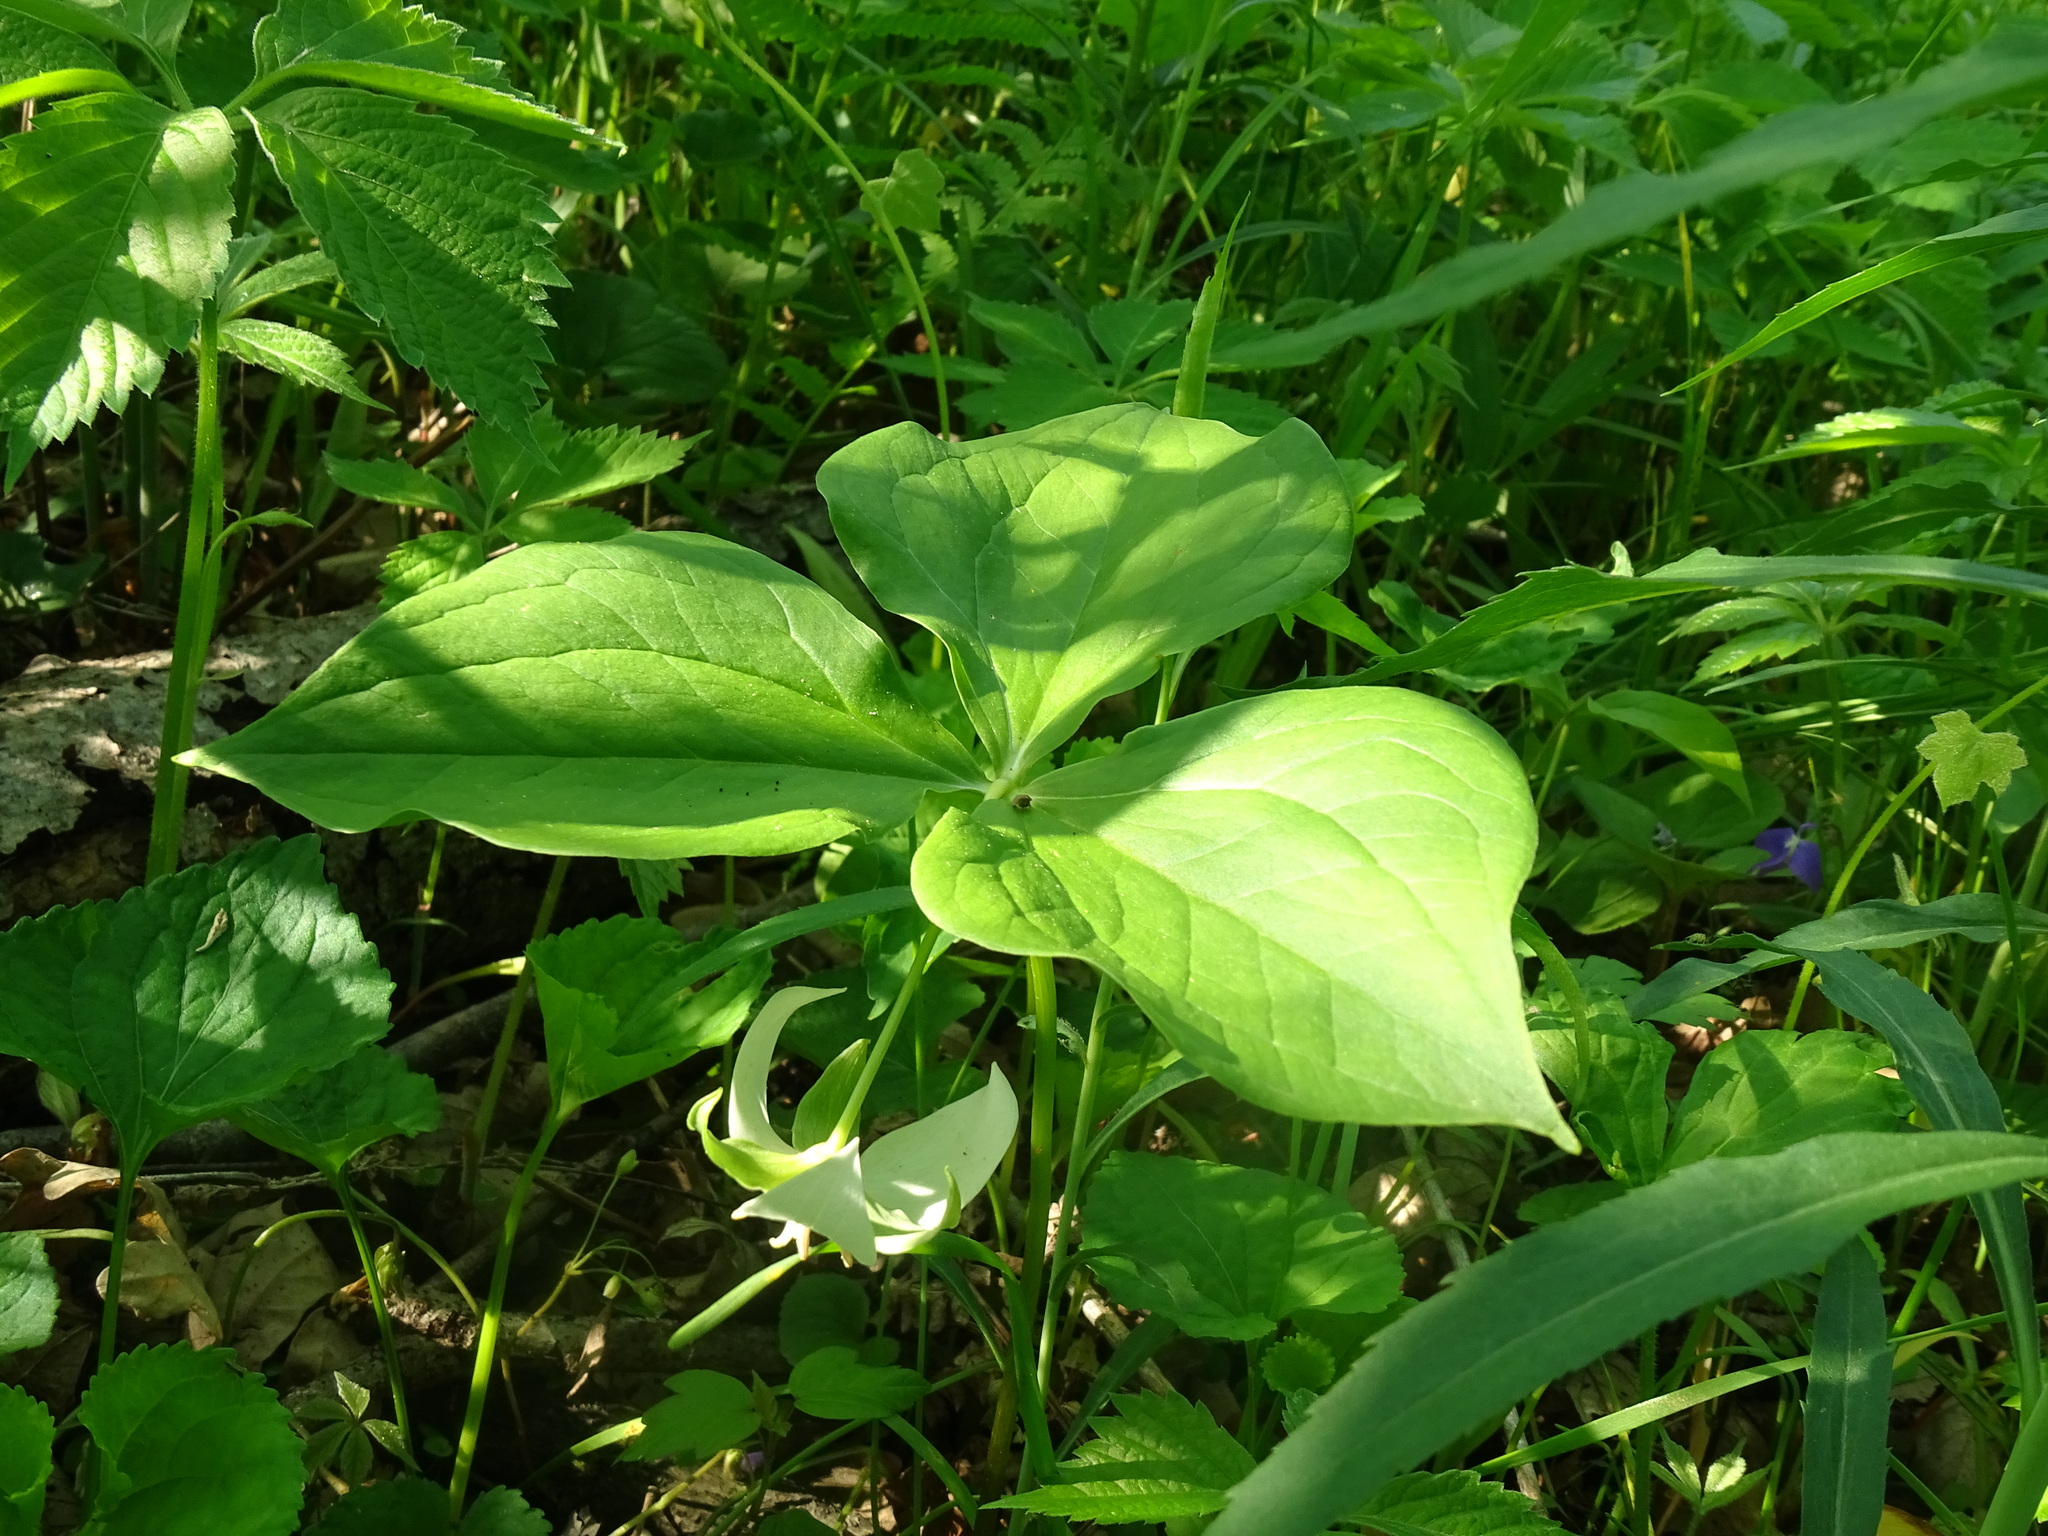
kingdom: Plantae
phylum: Tracheophyta
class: Liliopsida
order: Liliales
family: Melanthiaceae
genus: Trillium
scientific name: Trillium flexipes
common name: Drooping trillium
